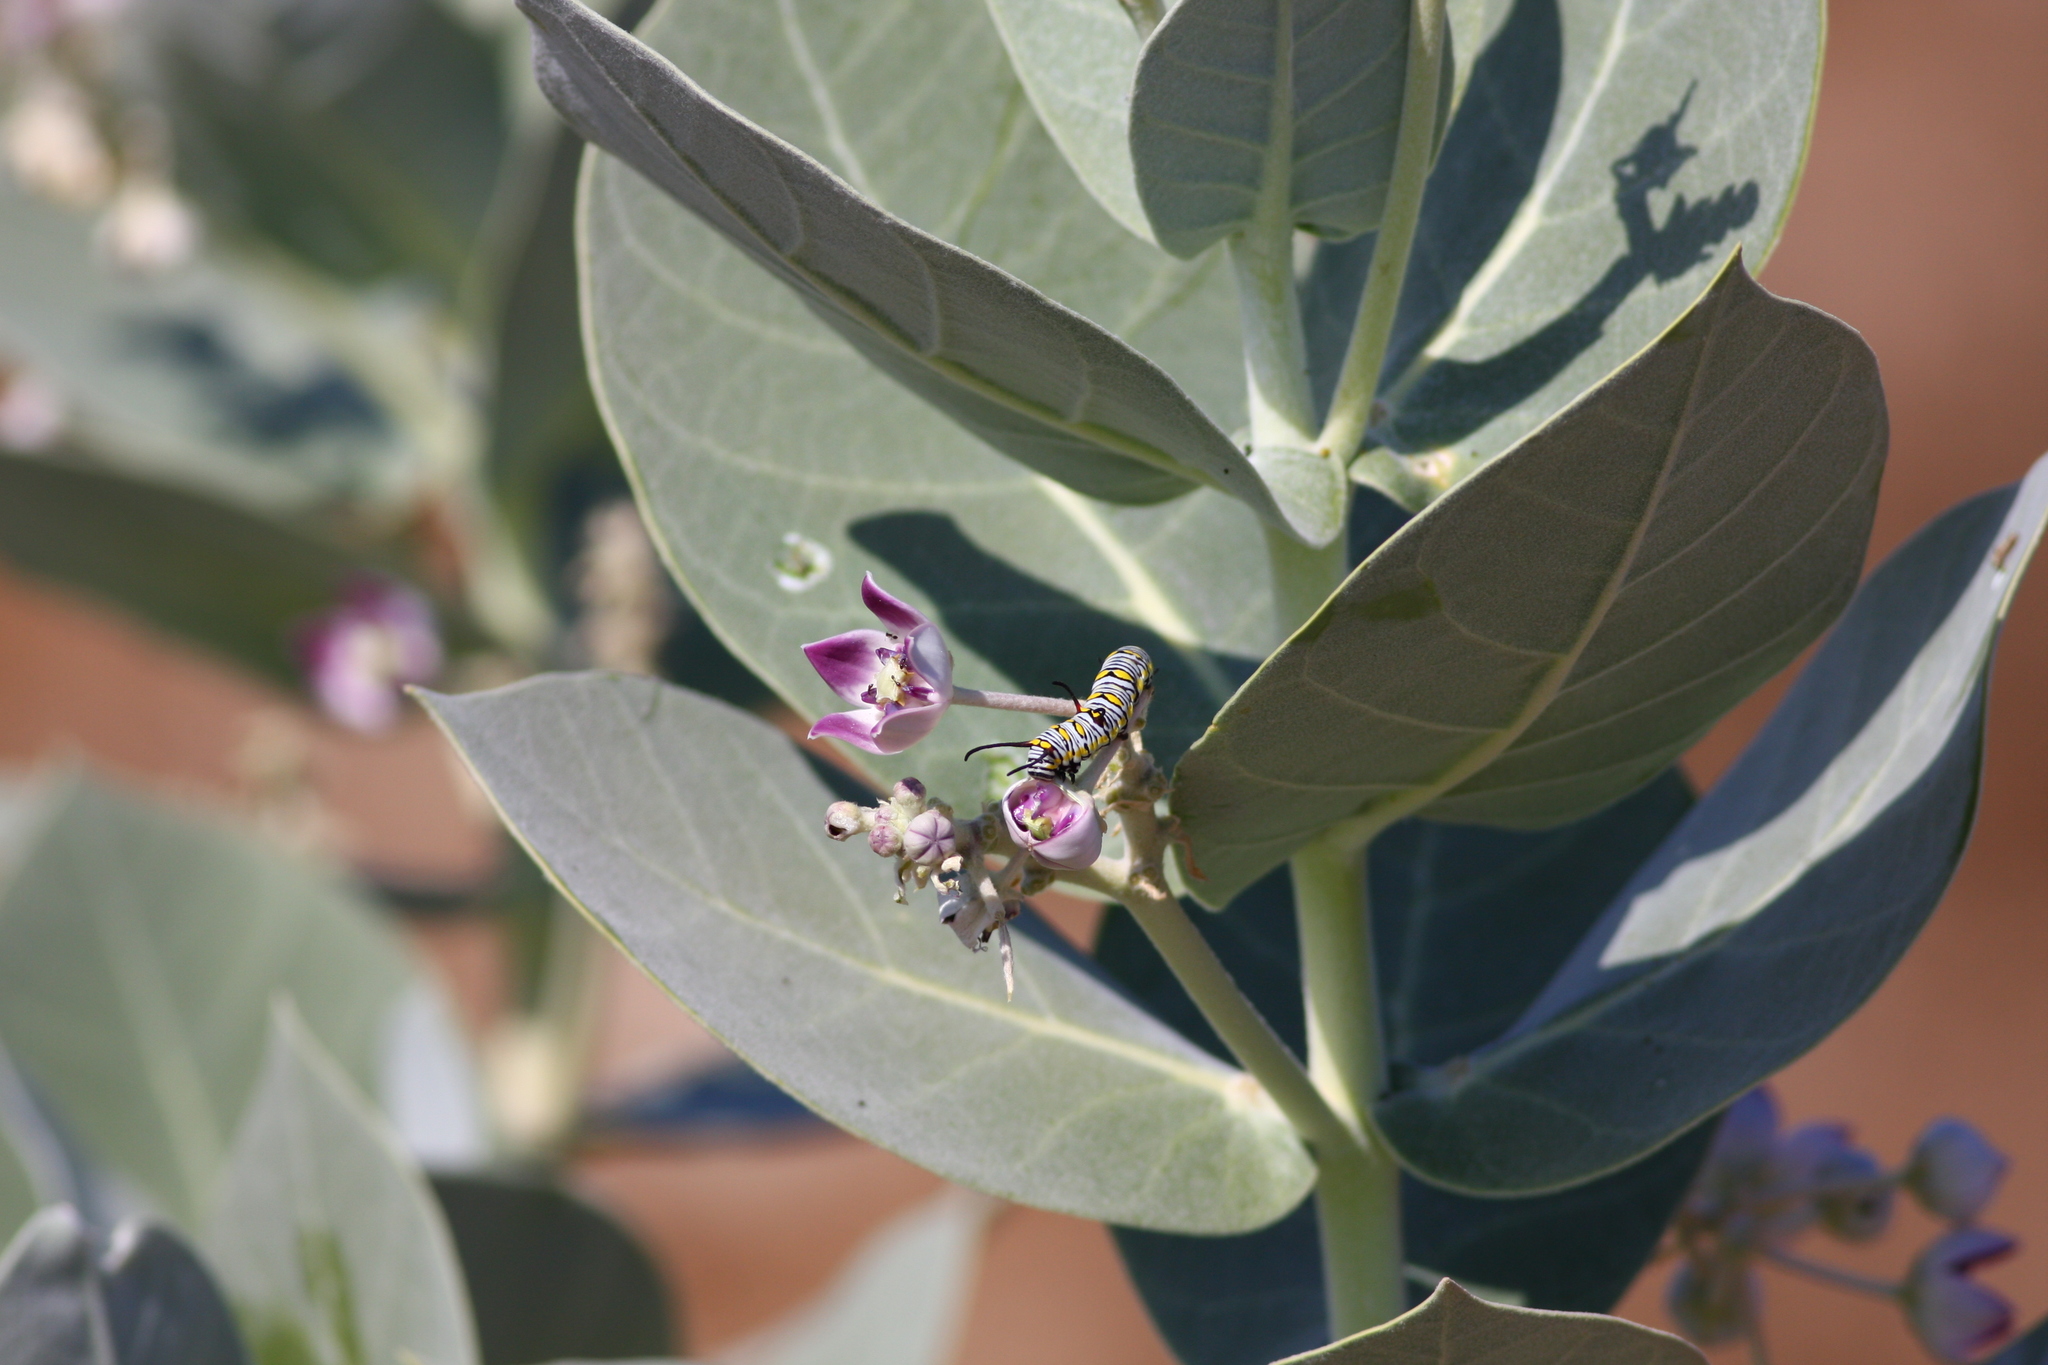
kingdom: Plantae
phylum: Tracheophyta
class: Magnoliopsida
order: Gentianales
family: Apocynaceae
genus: Calotropis
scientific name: Calotropis procera
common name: Roostertree
